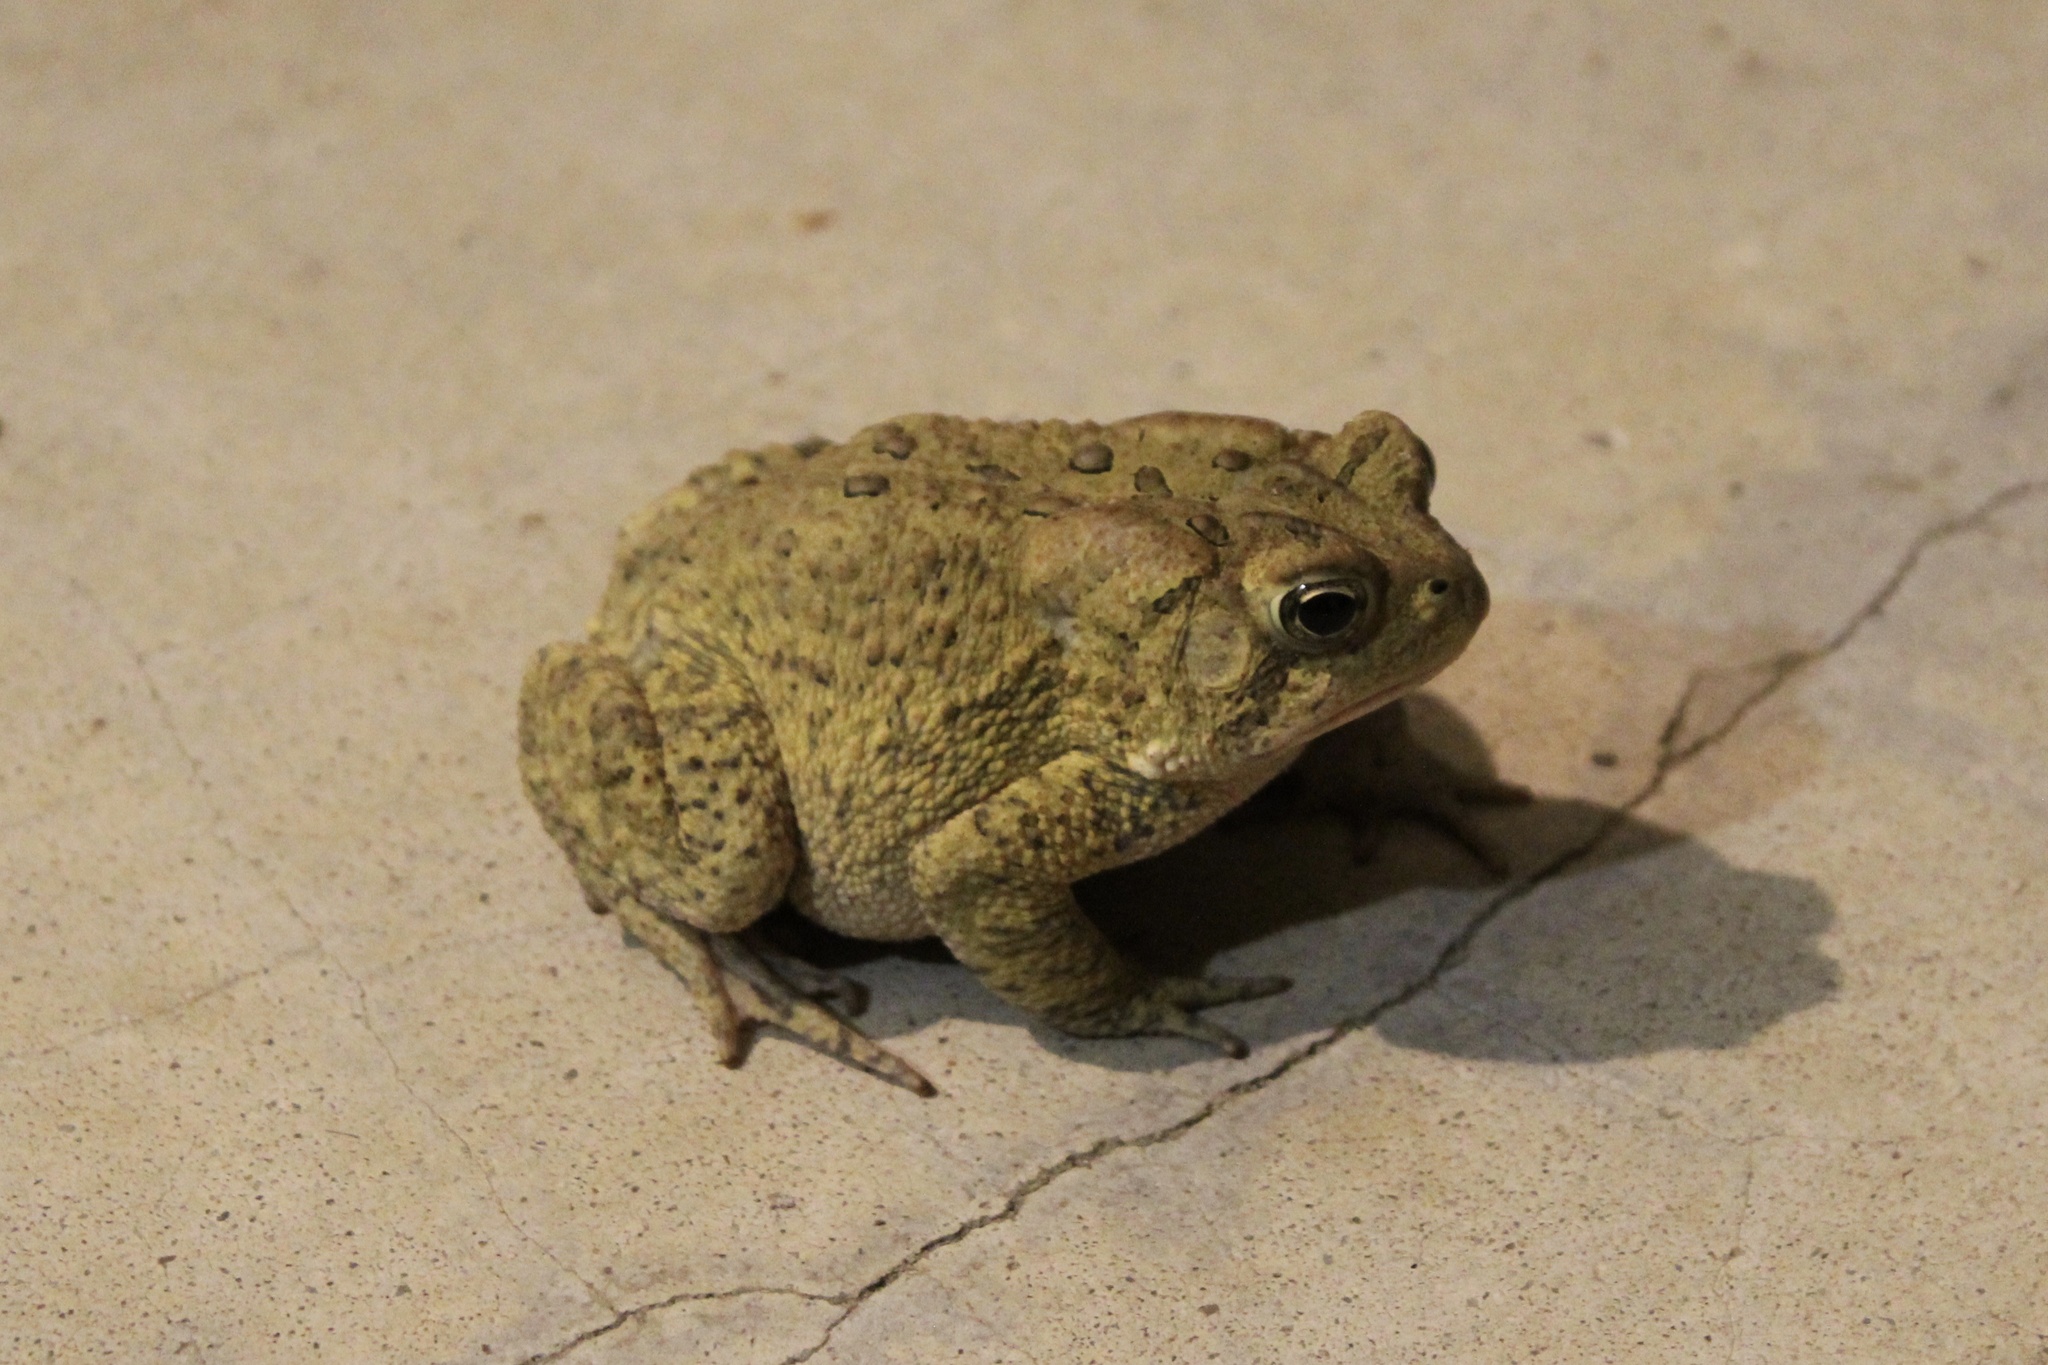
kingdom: Animalia
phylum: Chordata
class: Amphibia
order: Anura
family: Bufonidae
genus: Anaxyrus
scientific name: Anaxyrus americanus
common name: American toad
